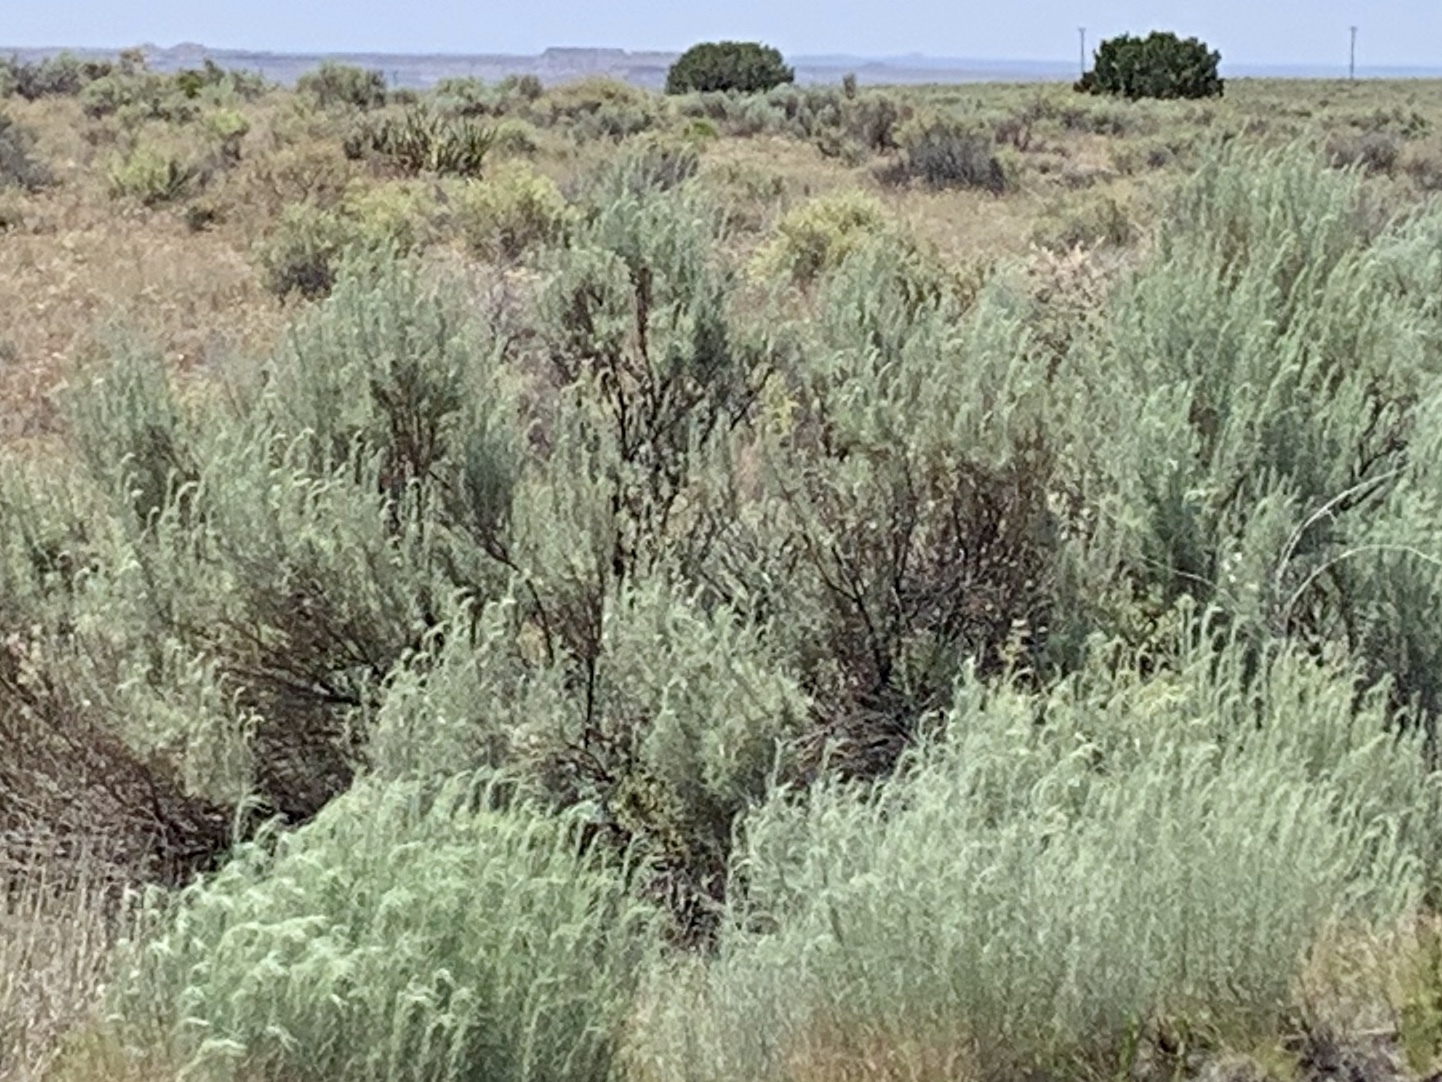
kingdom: Plantae
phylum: Tracheophyta
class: Magnoliopsida
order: Asterales
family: Asteraceae
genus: Artemisia
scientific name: Artemisia filifolia
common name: Sand-sage
